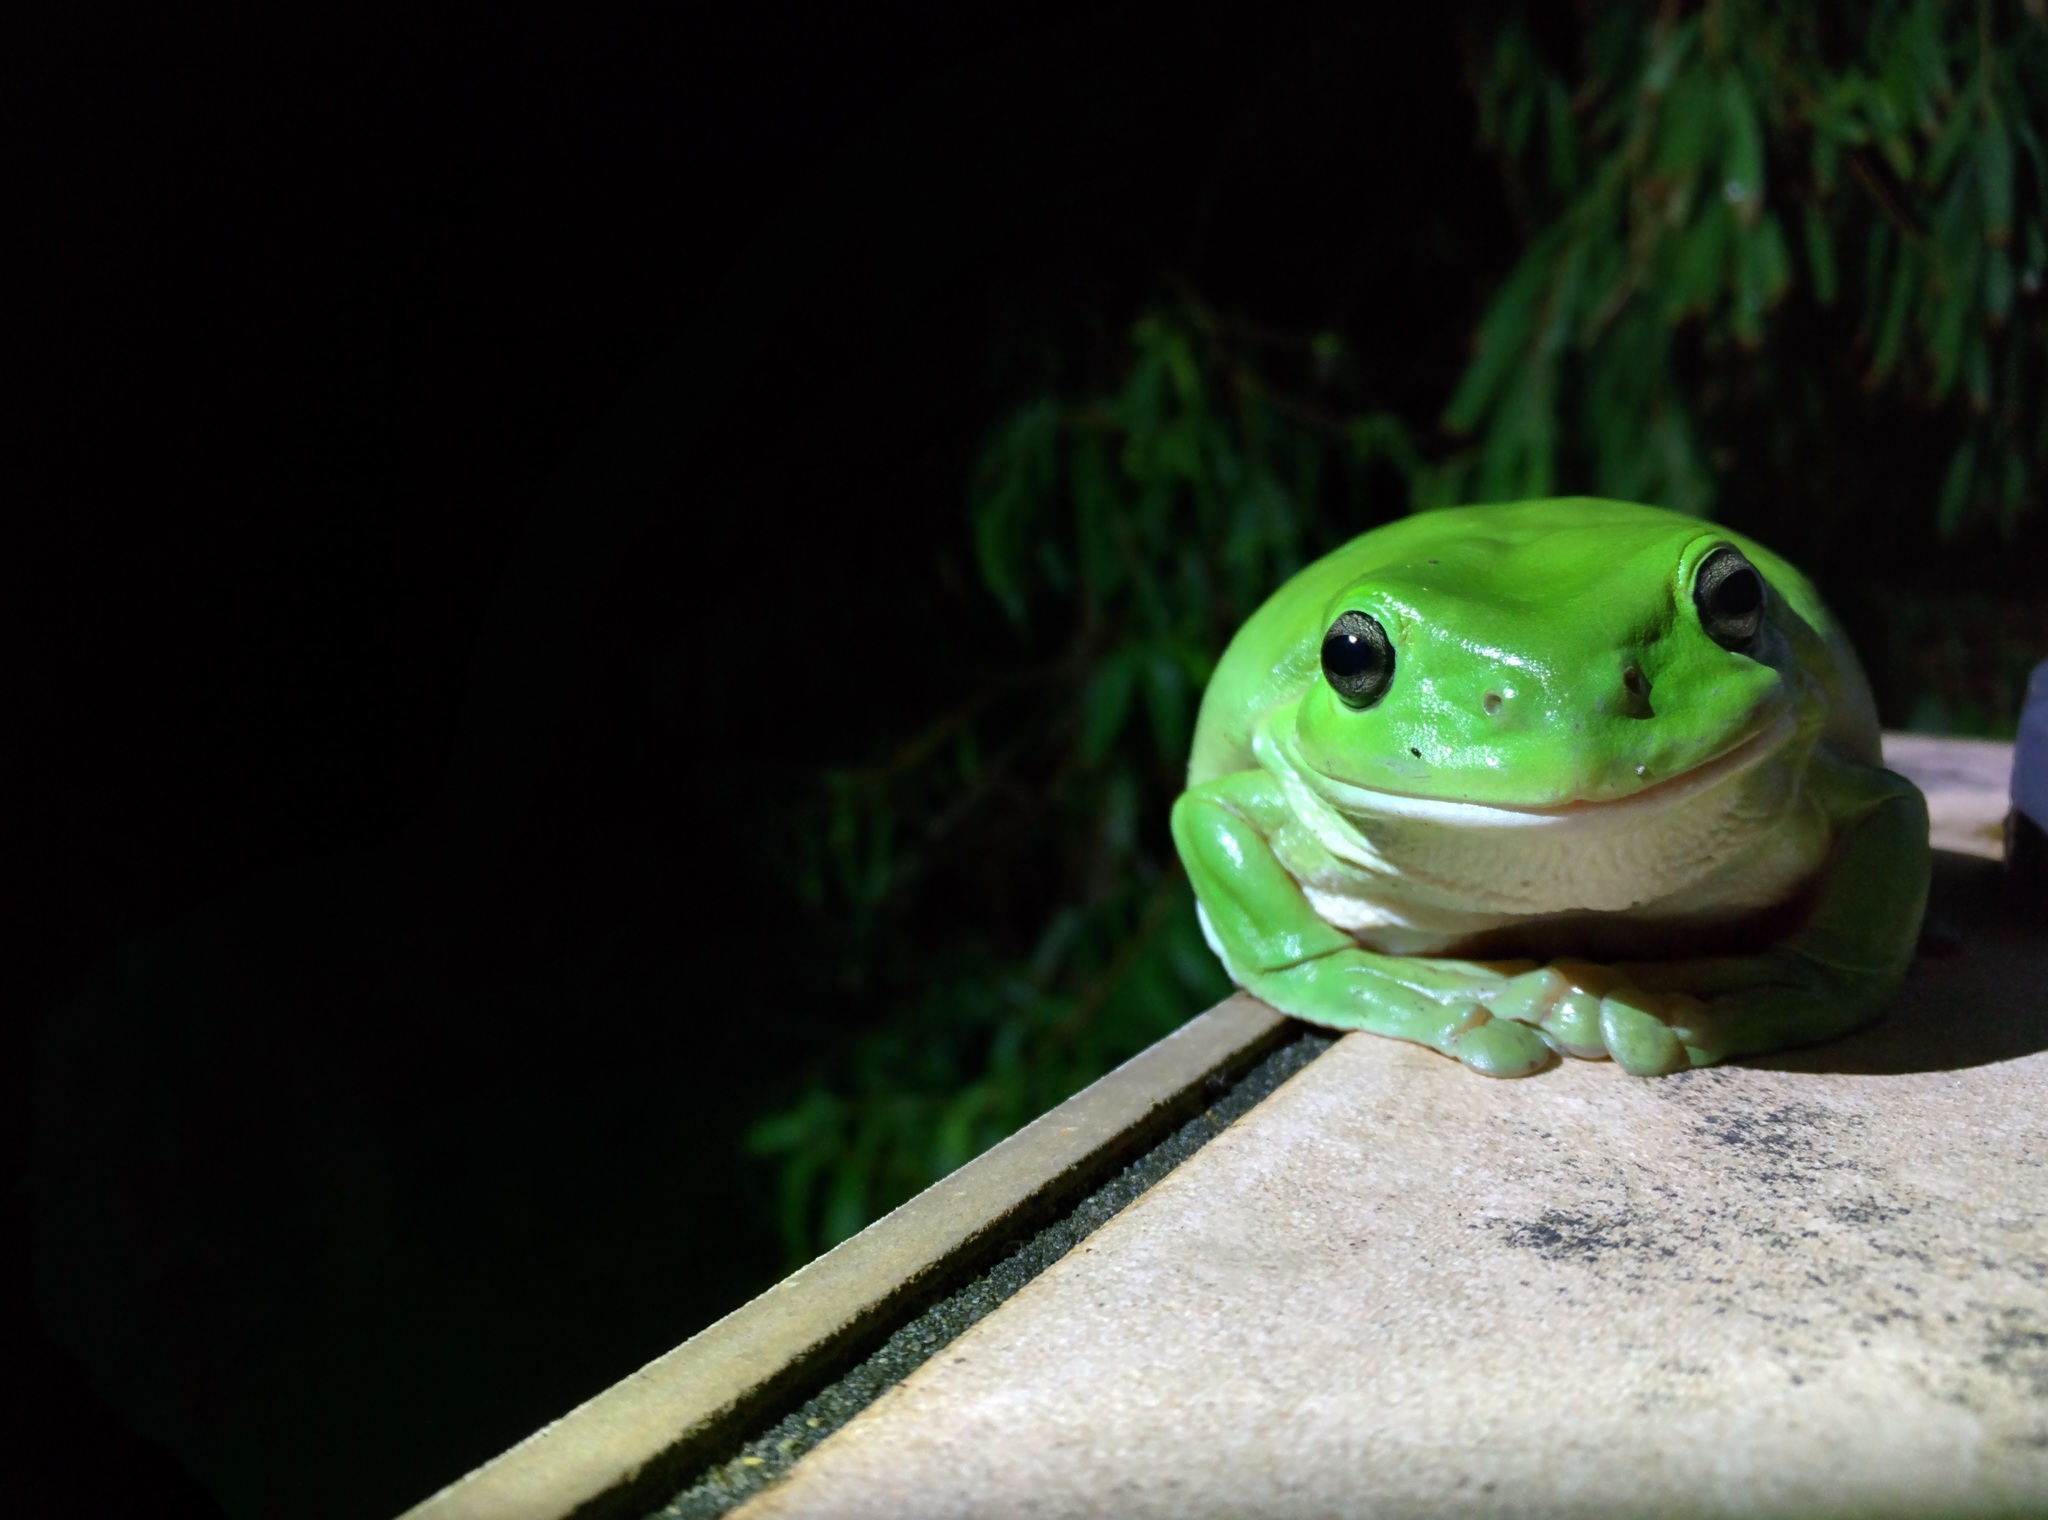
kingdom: Animalia
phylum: Chordata
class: Amphibia
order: Anura
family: Pelodryadidae
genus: Ranoidea
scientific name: Ranoidea caerulea
